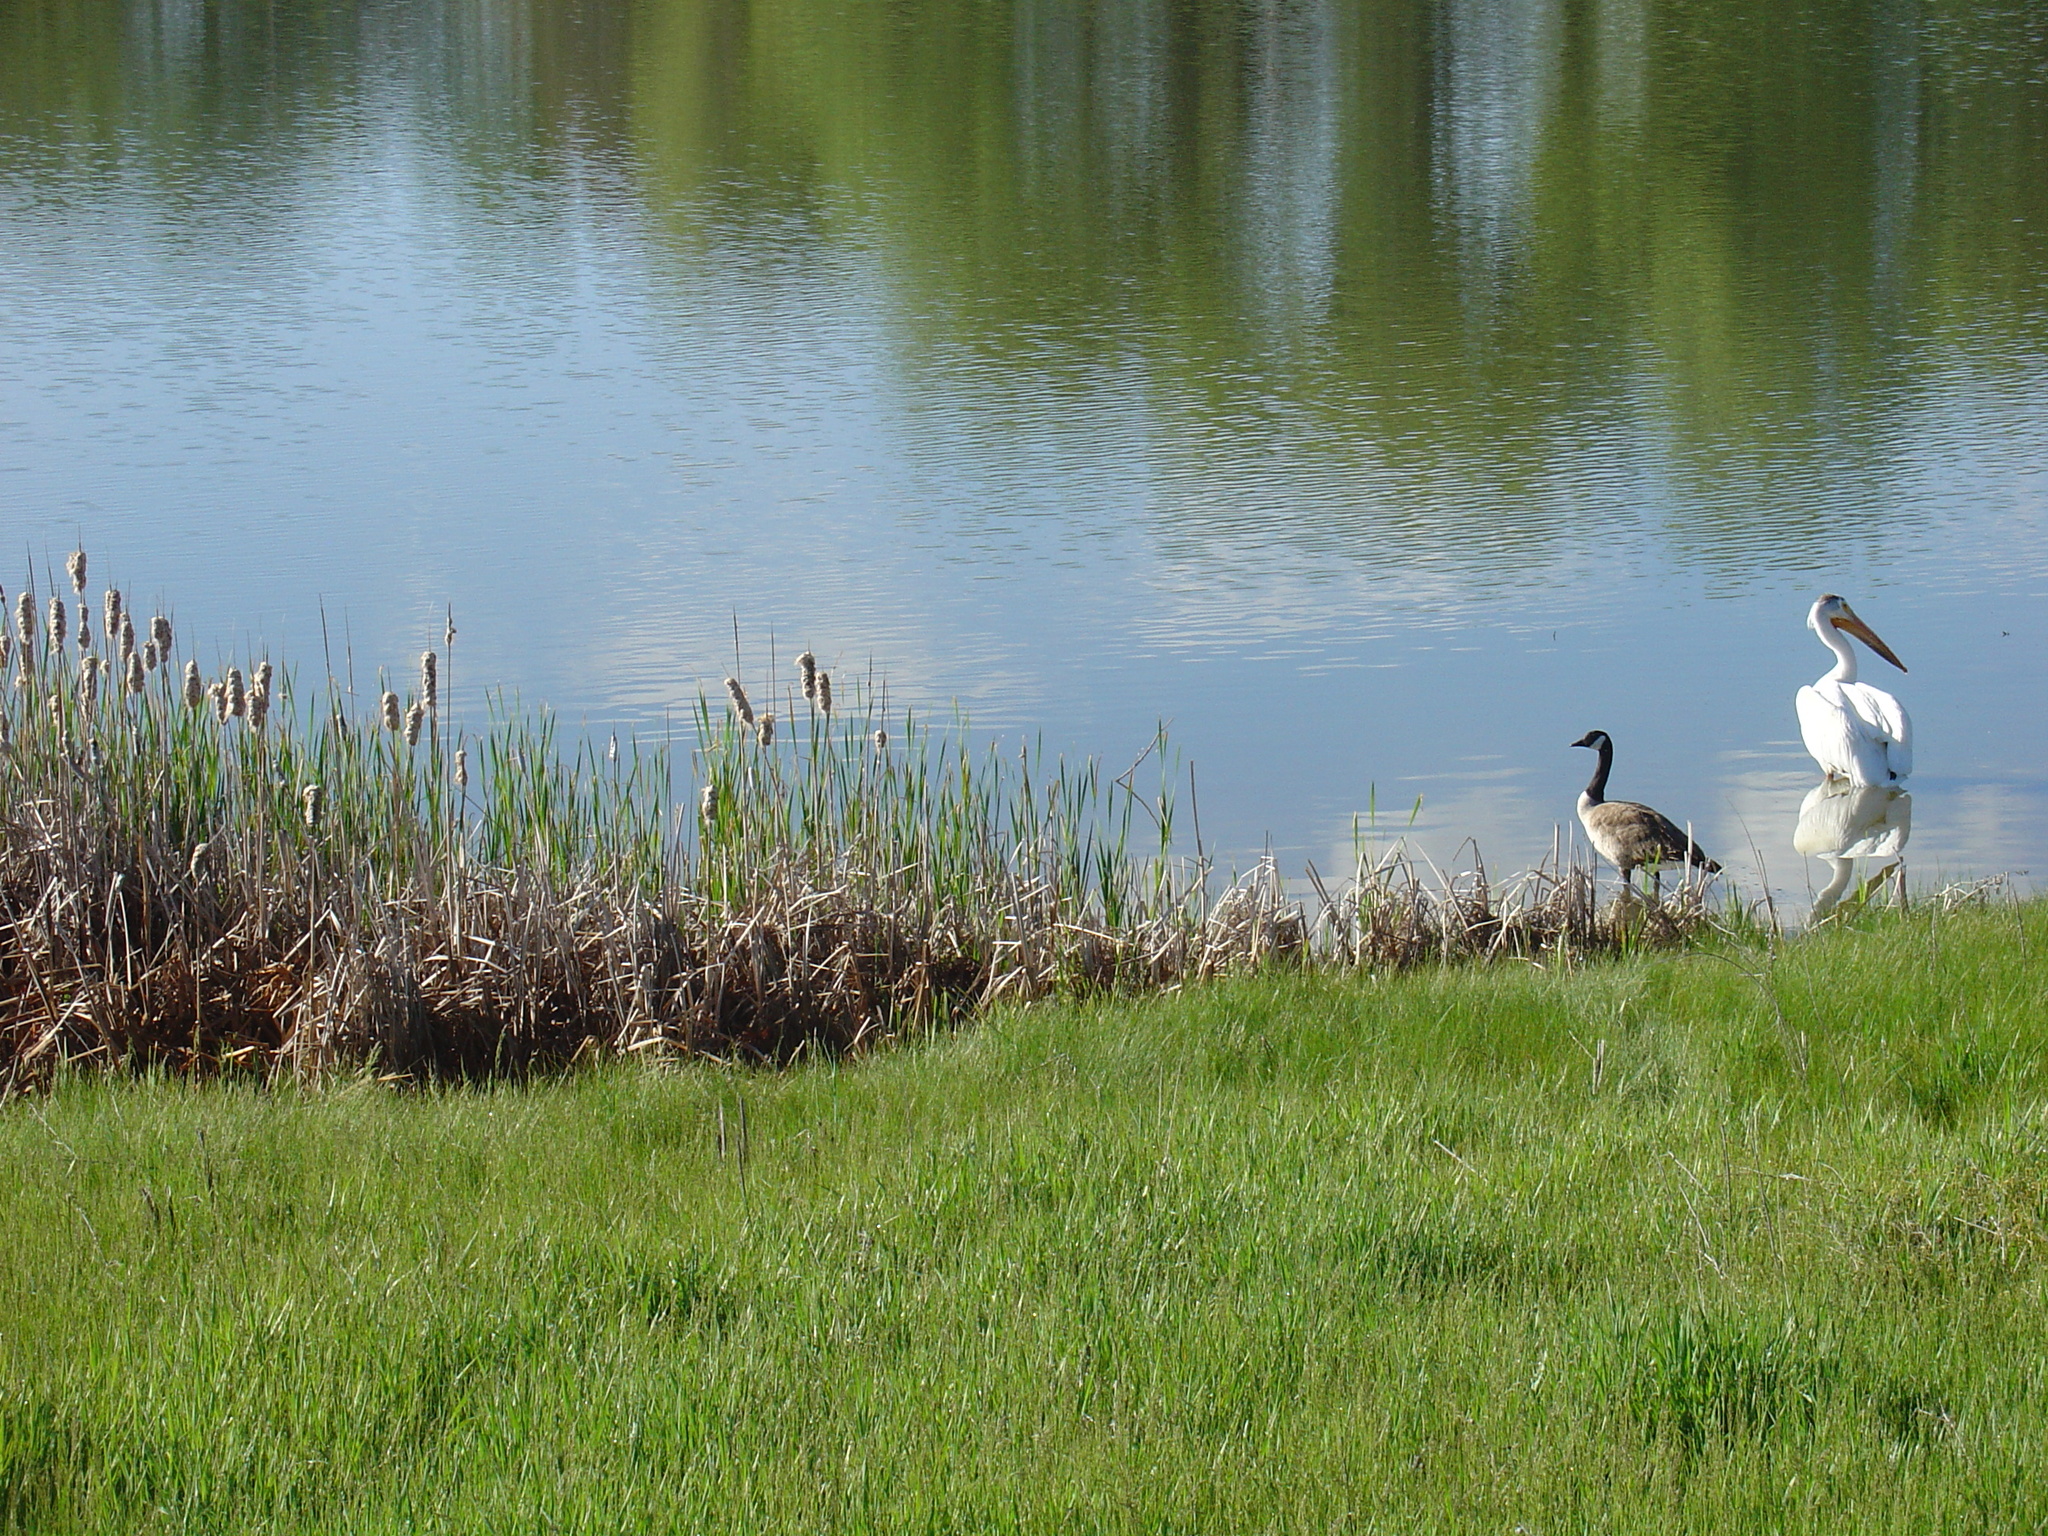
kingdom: Animalia
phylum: Chordata
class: Aves
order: Anseriformes
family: Anatidae
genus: Branta
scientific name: Branta canadensis
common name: Canada goose
